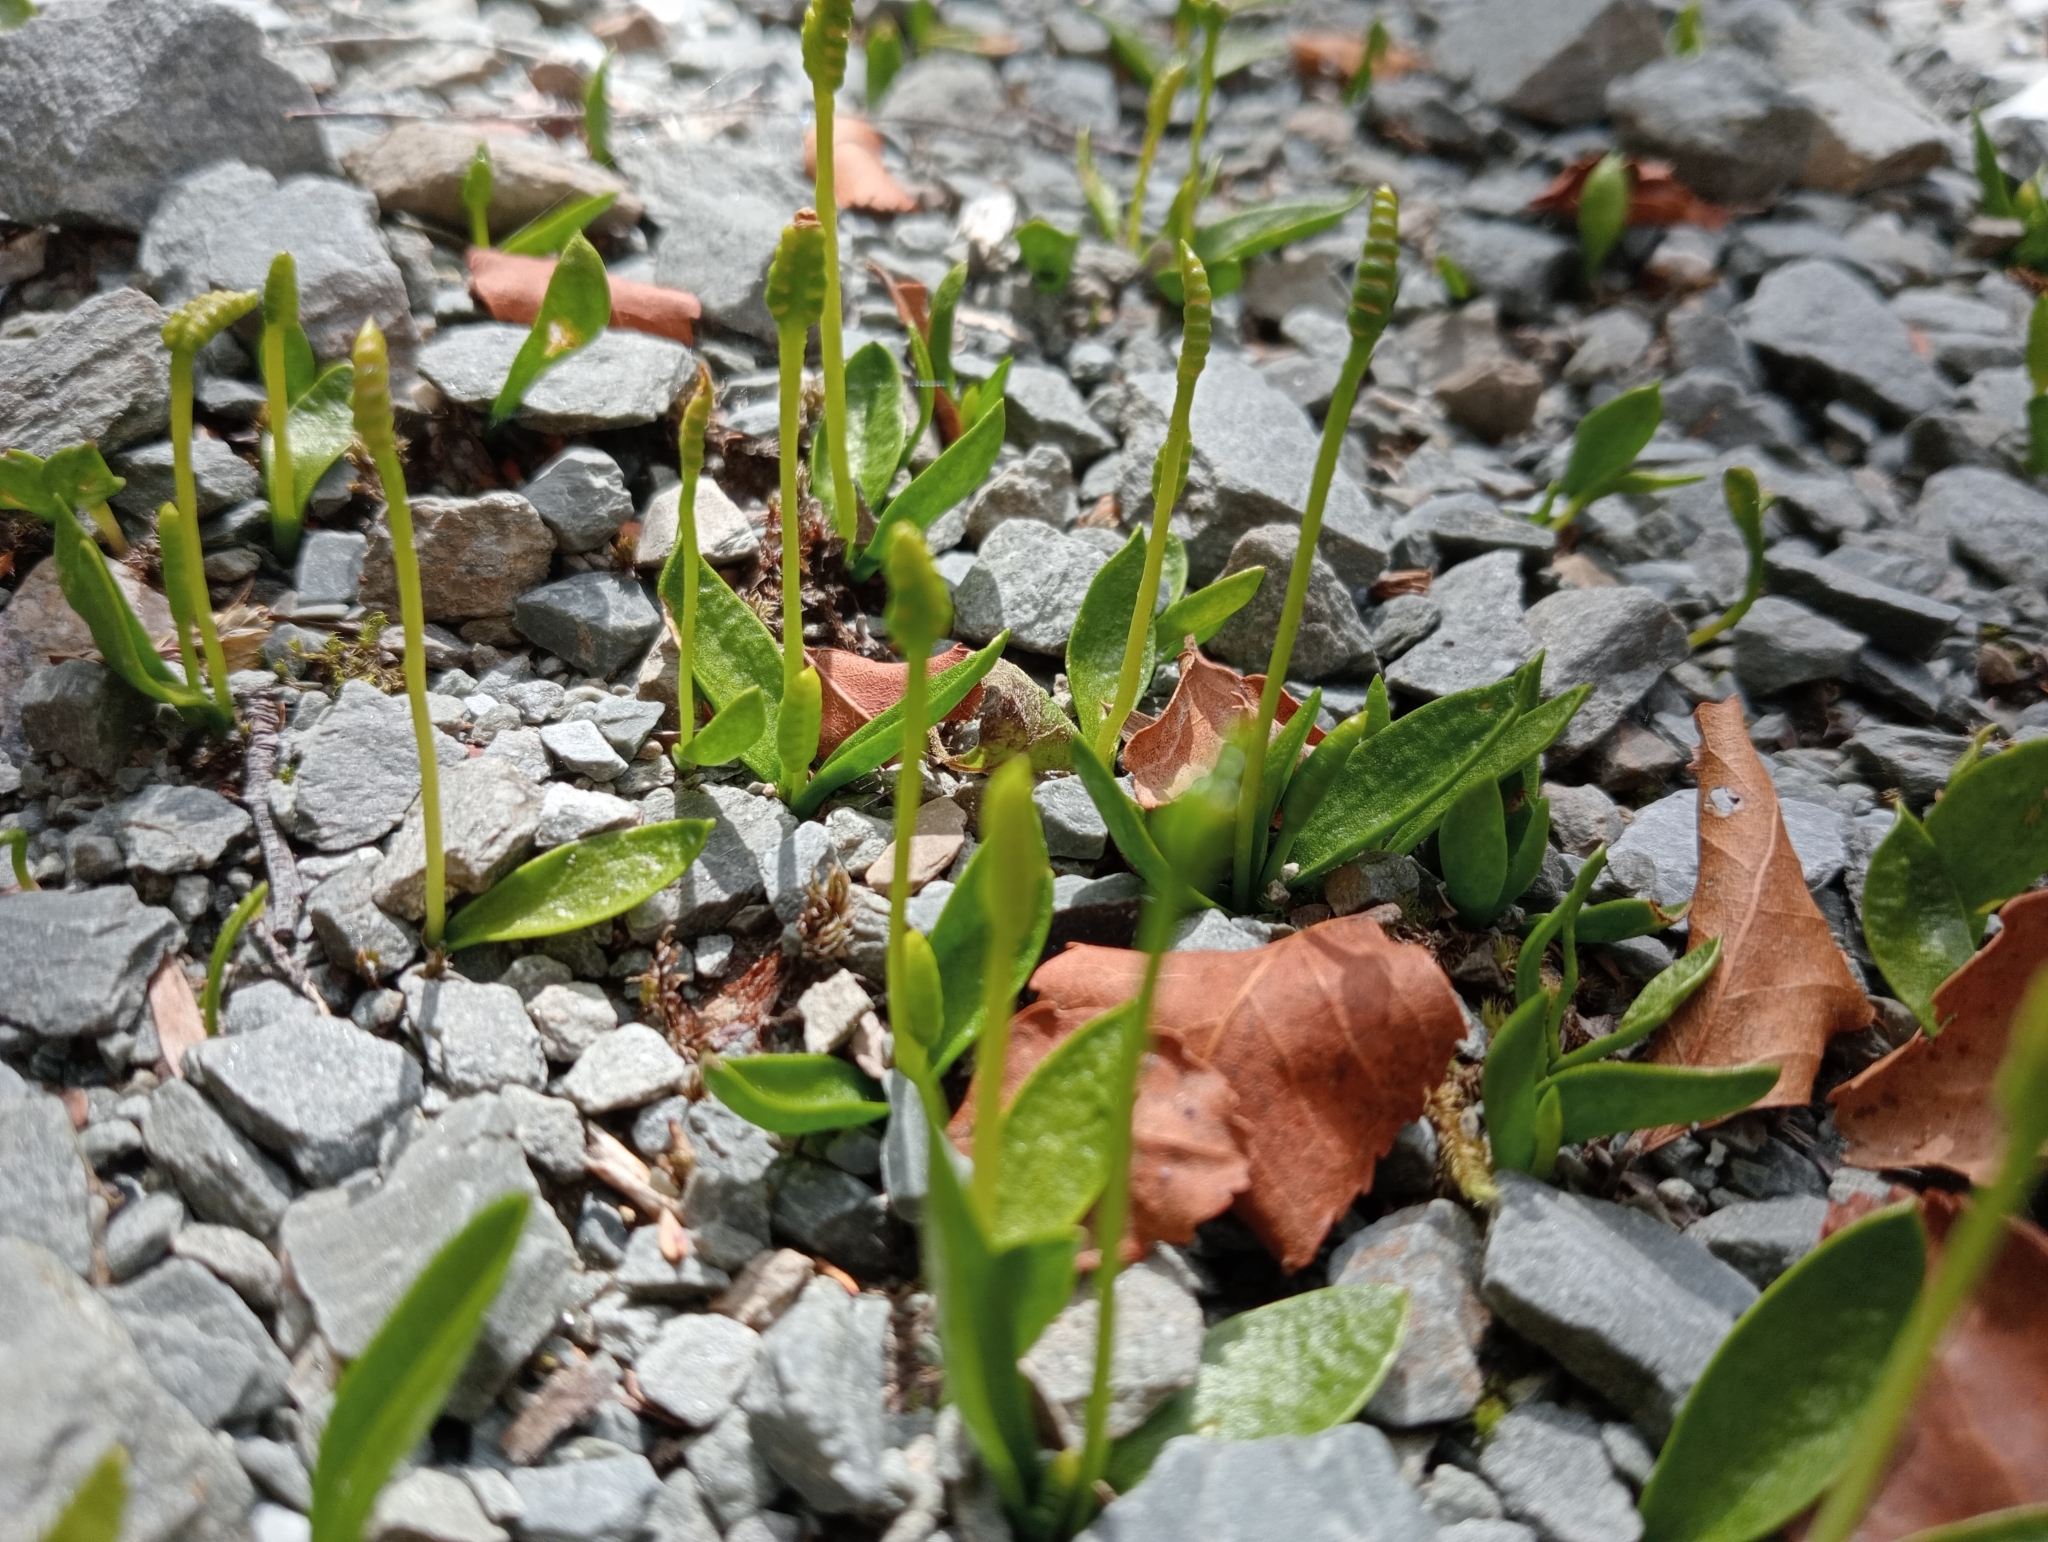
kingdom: Plantae
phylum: Tracheophyta
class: Polypodiopsida
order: Ophioglossales
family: Ophioglossaceae
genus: Ophioglossum
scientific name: Ophioglossum coriaceum
